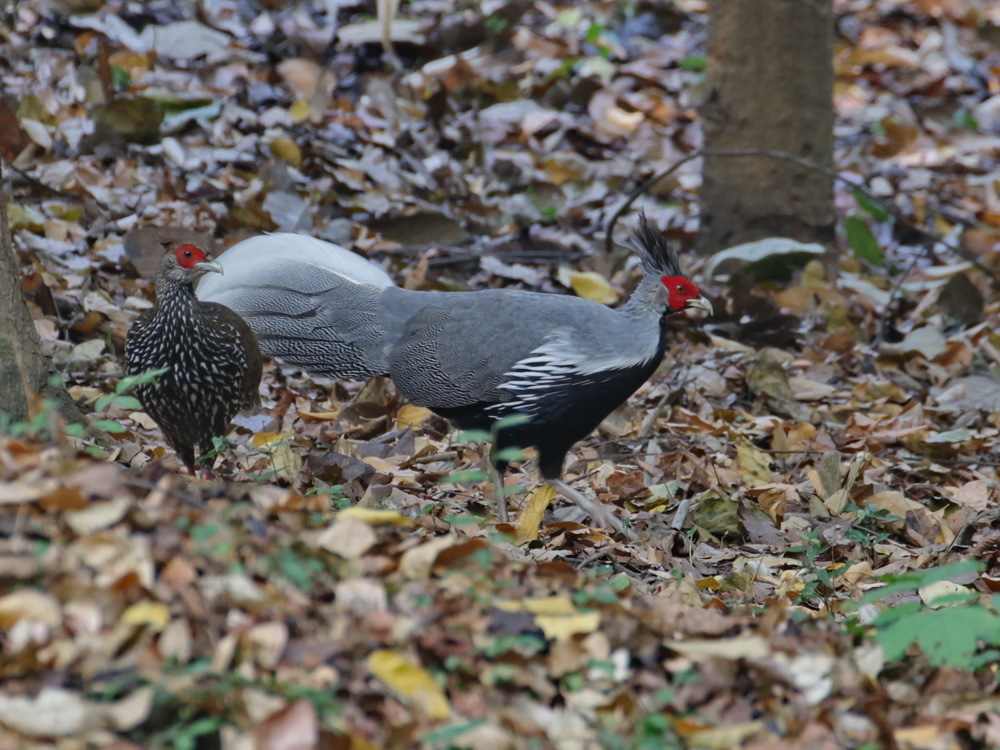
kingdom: Animalia
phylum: Chordata
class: Aves
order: Galliformes
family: Phasianidae
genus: Lophura
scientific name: Lophura leucomelanos
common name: Kalij pheasant
